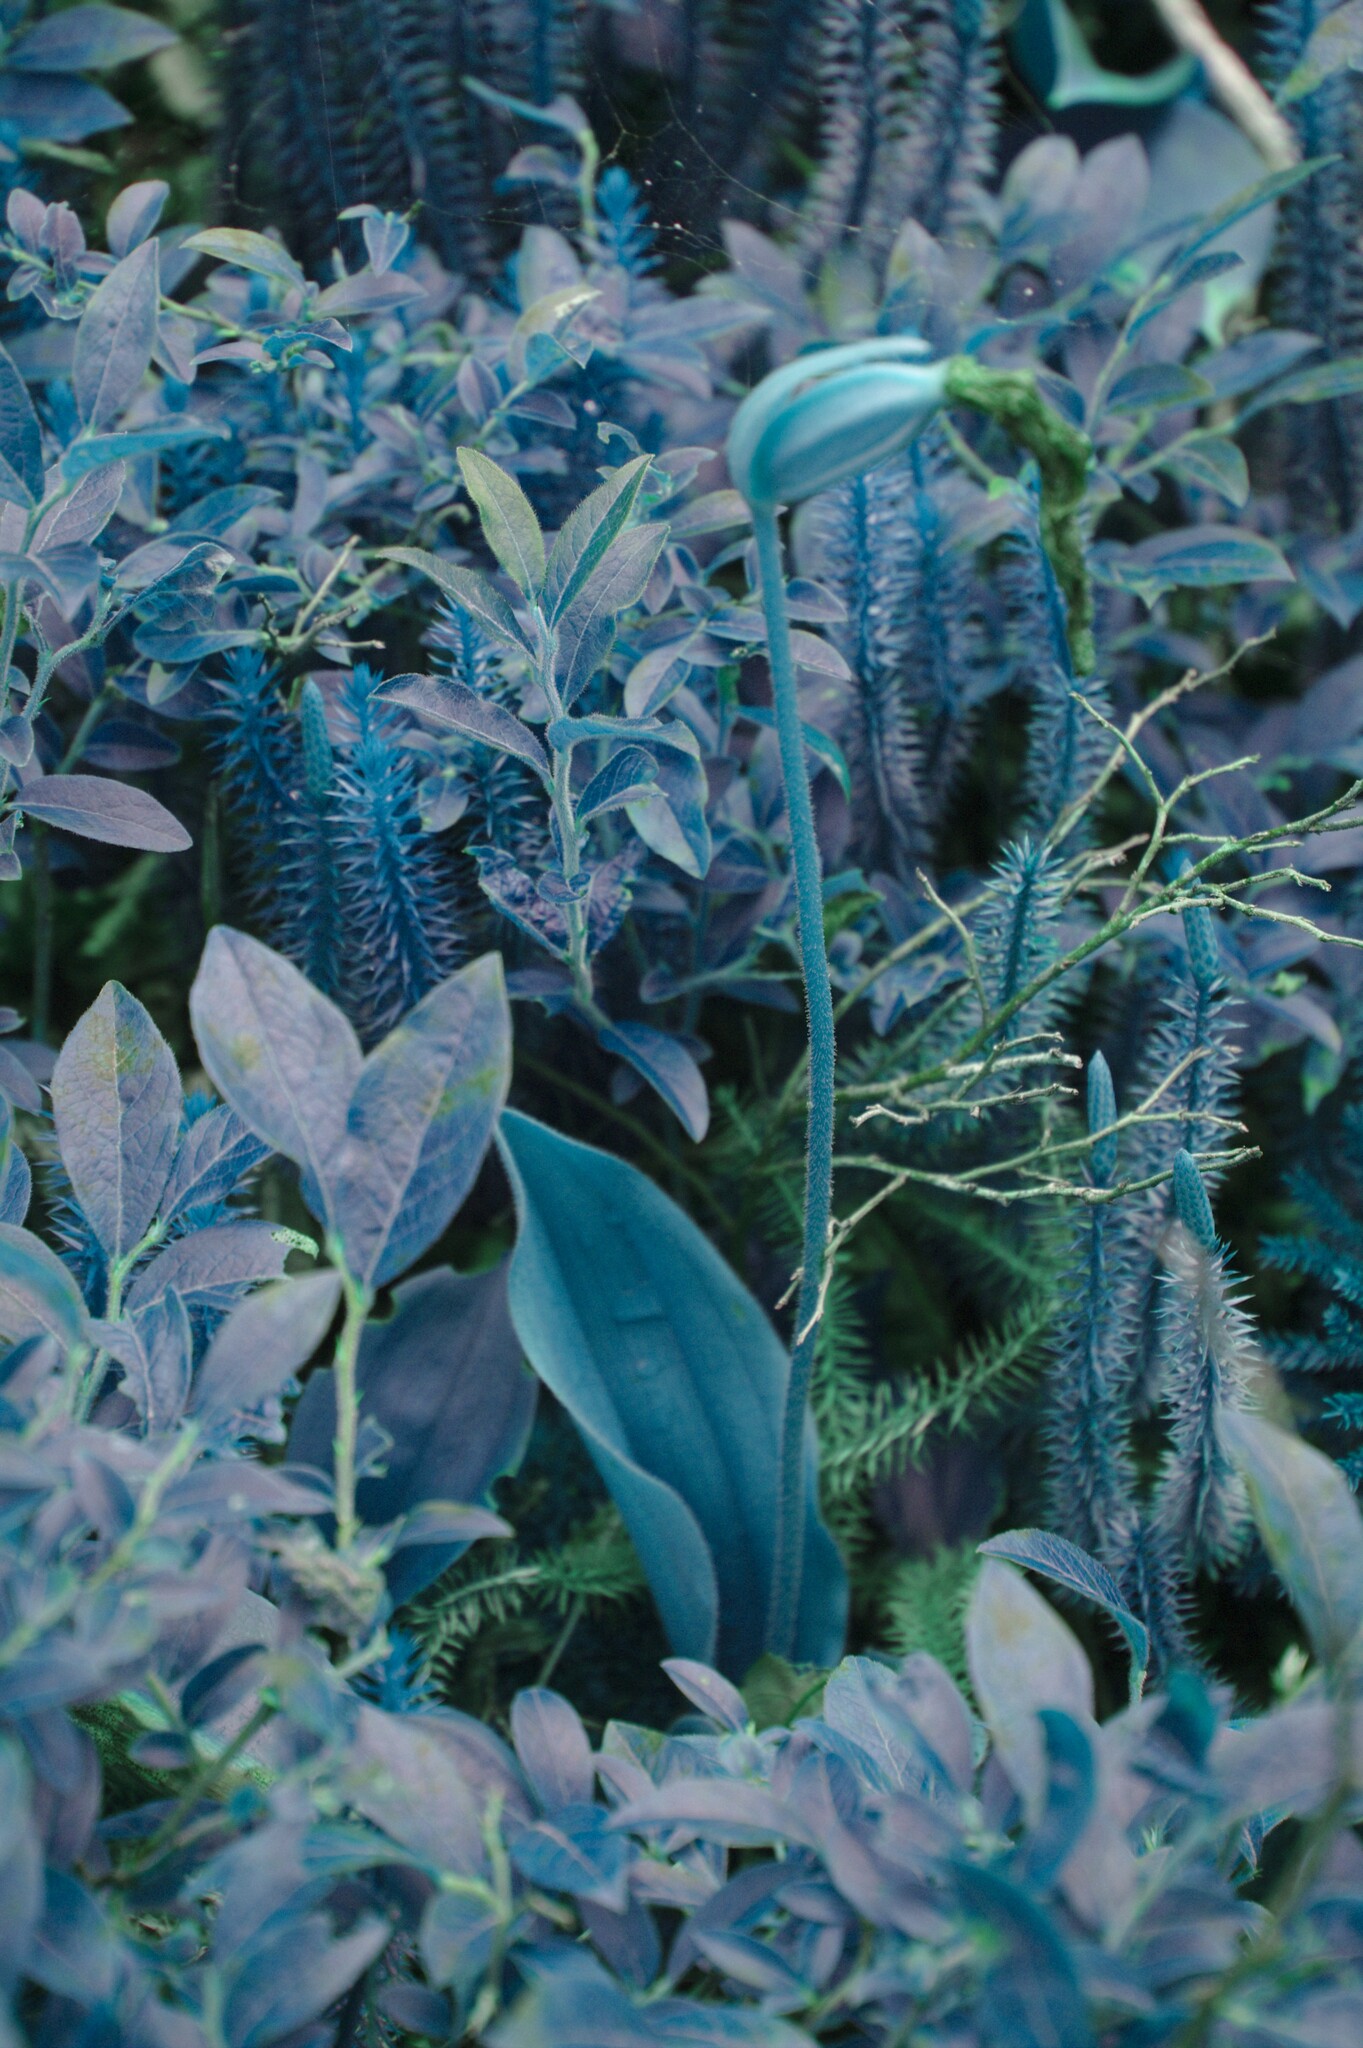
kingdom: Plantae
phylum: Tracheophyta
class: Magnoliopsida
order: Ericales
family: Ericaceae
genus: Vaccinium
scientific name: Vaccinium myrtilloides
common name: Canada blueberry
